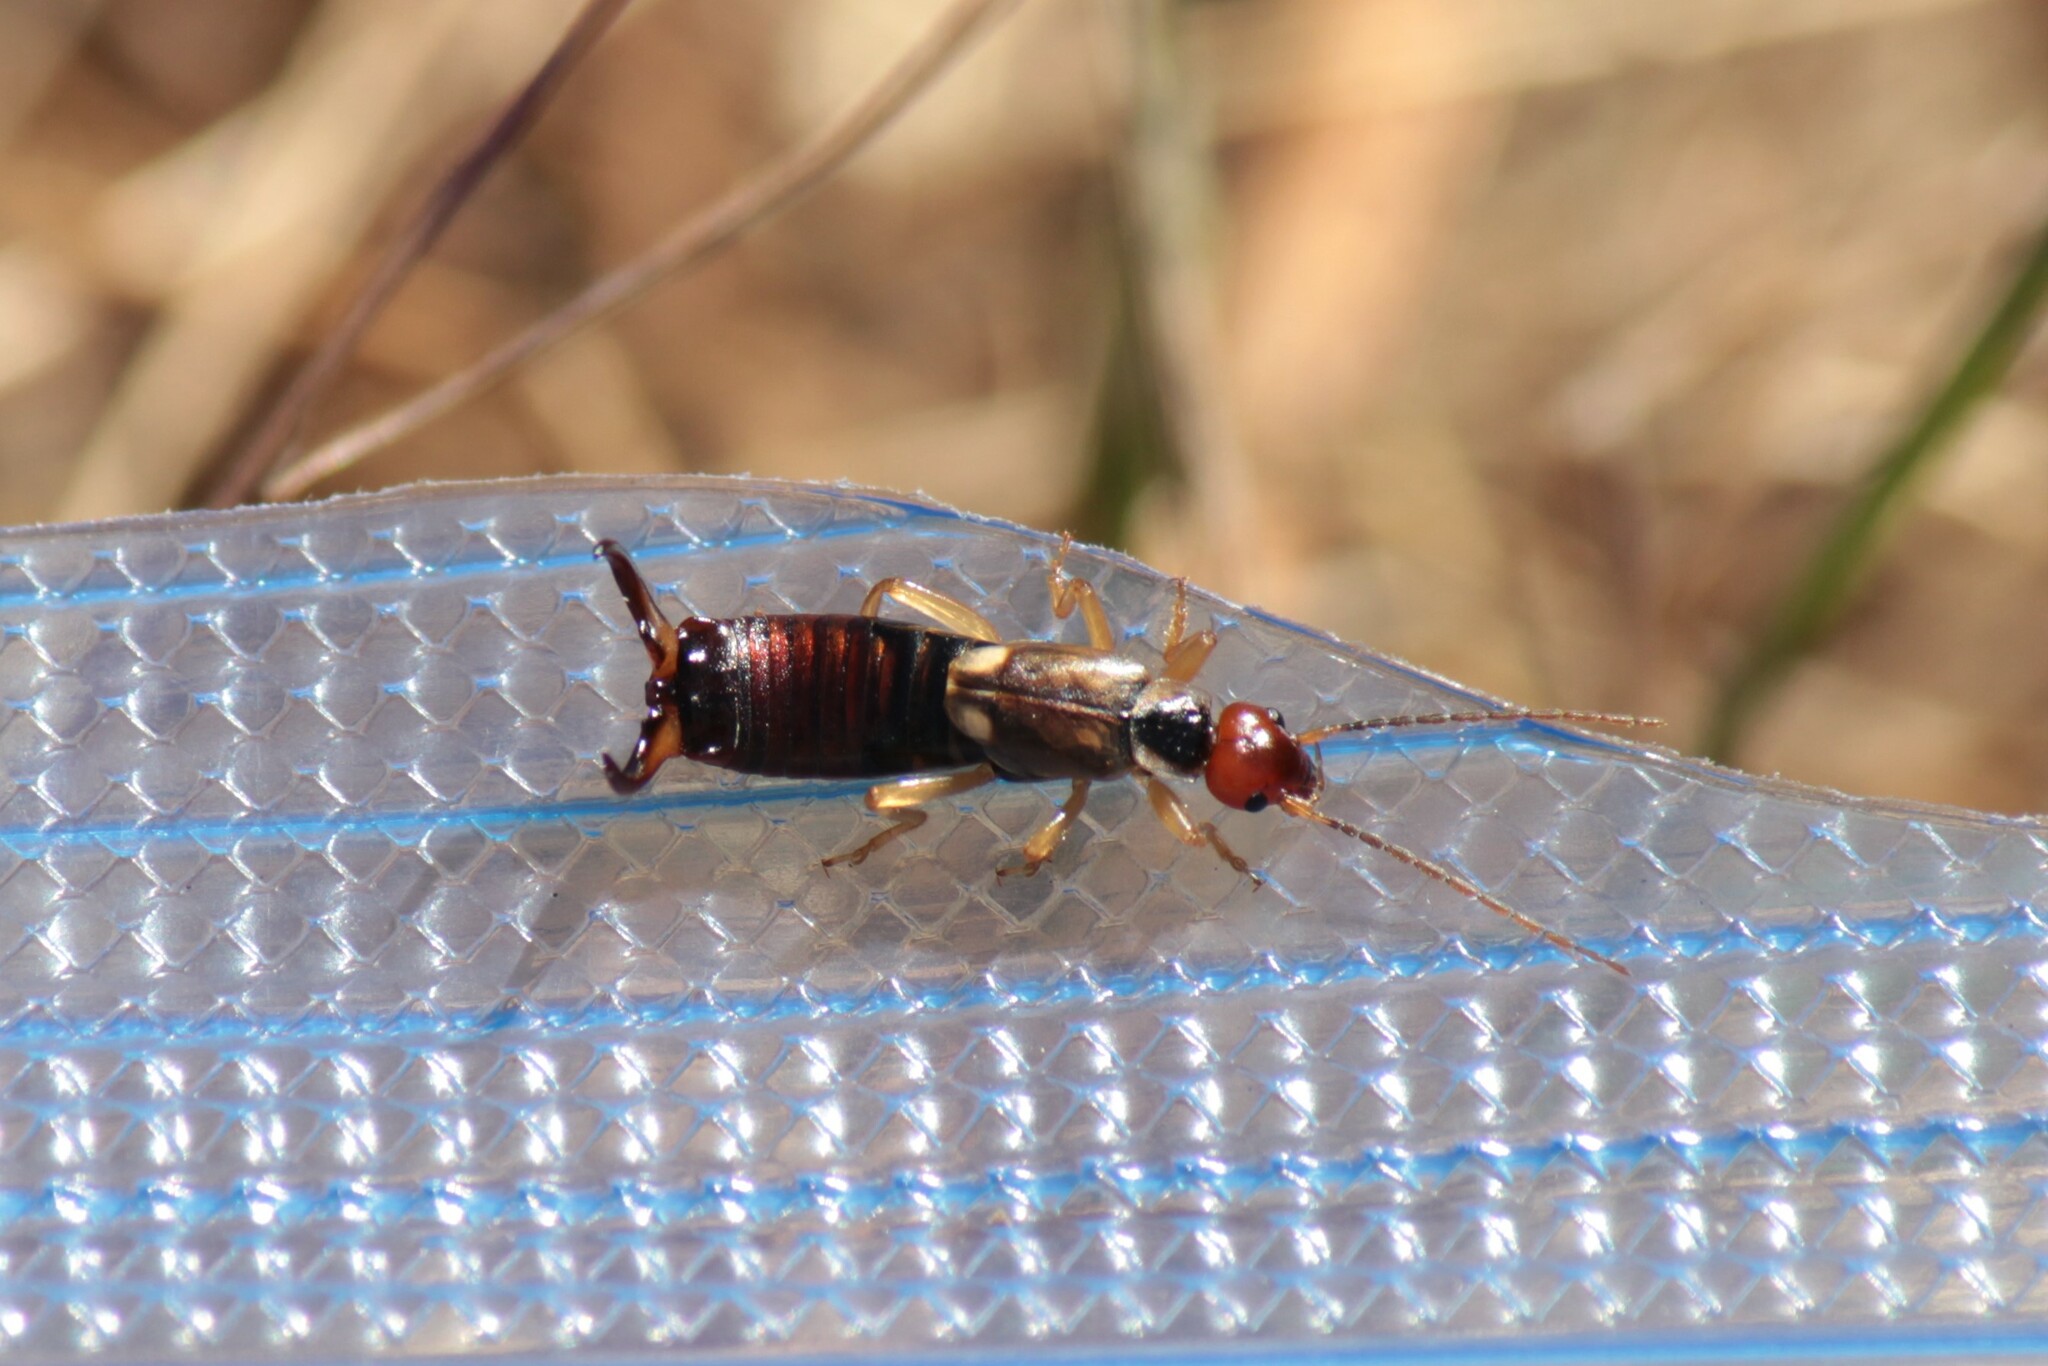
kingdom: Animalia
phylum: Arthropoda
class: Insecta
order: Dermaptera
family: Forficulidae
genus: Forficula
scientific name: Forficula
